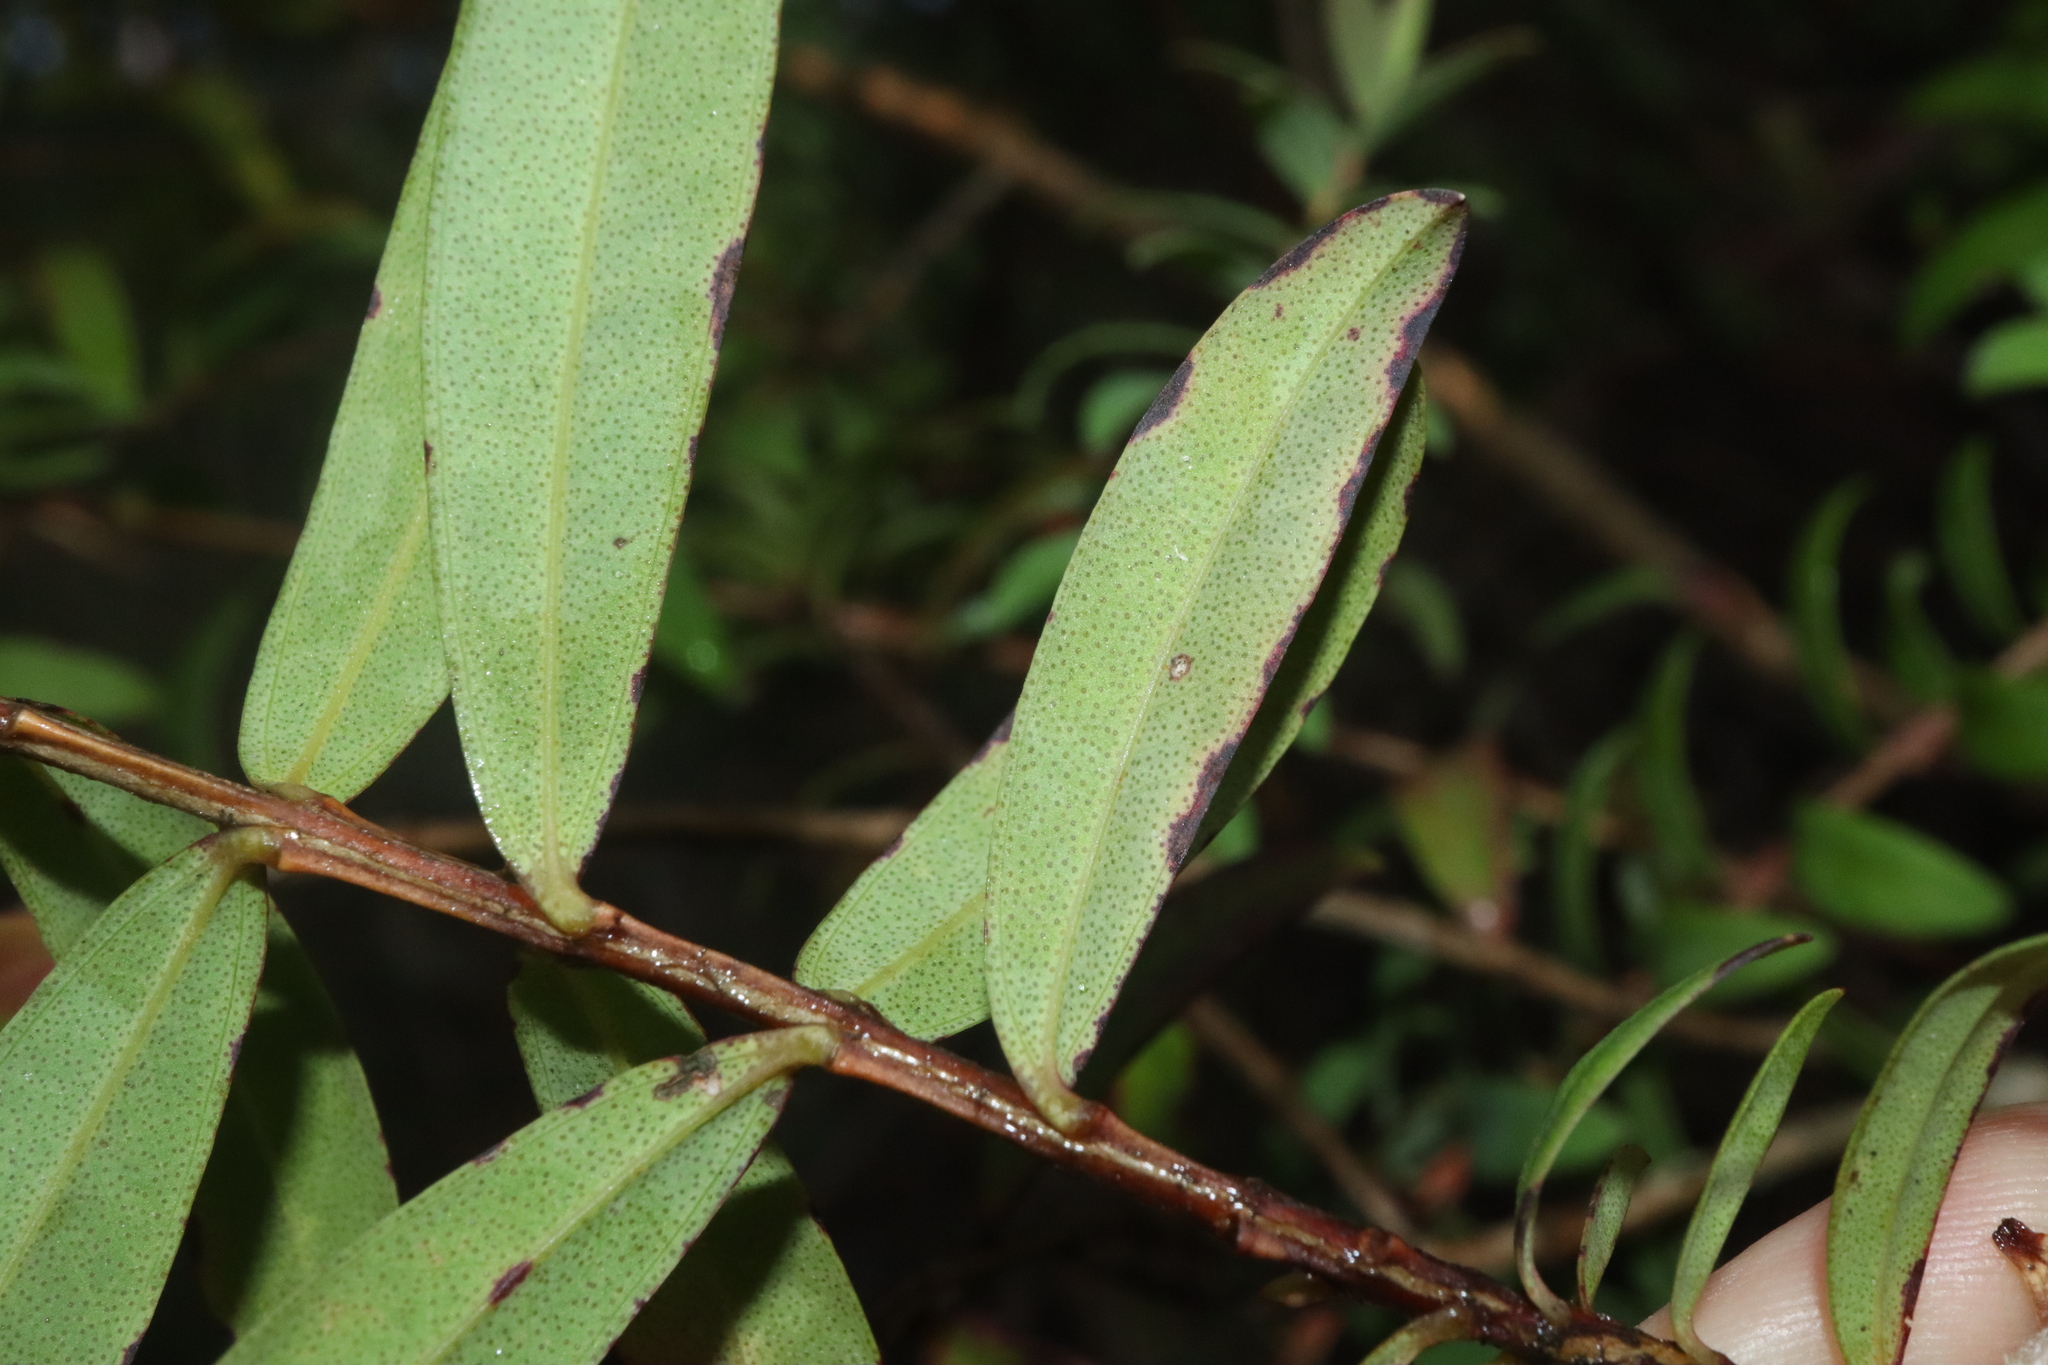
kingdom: Plantae
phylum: Tracheophyta
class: Magnoliopsida
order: Myrtales
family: Myrtaceae
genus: Melaleuca
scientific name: Melaleuca hypericifolia
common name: Red honey myrtle
